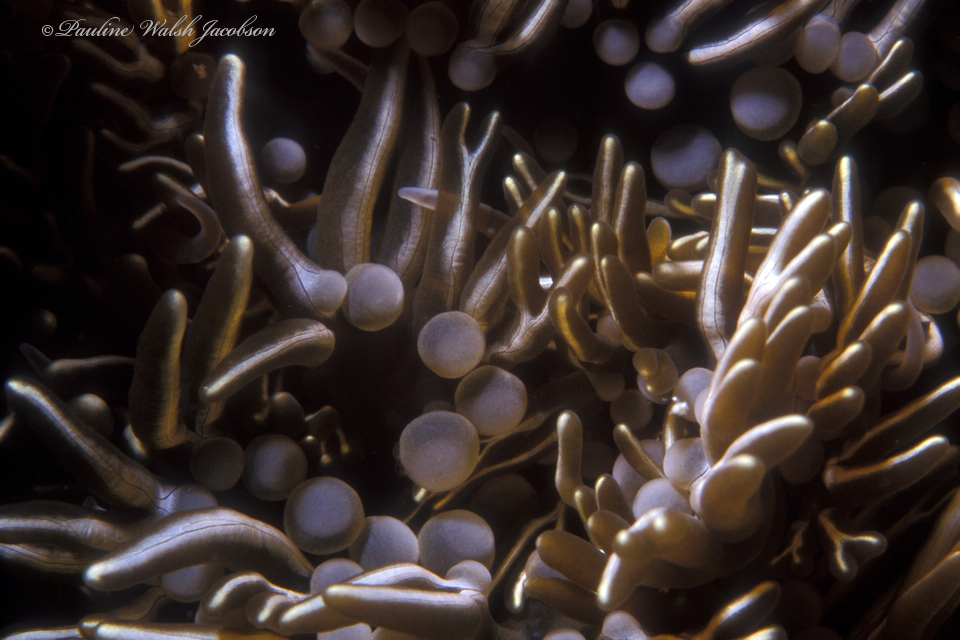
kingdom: Animalia
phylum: Cnidaria
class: Anthozoa
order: Actiniaria
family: Aliciidae
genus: Lebrunia
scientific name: Lebrunia neglecta
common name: Branching anemone
